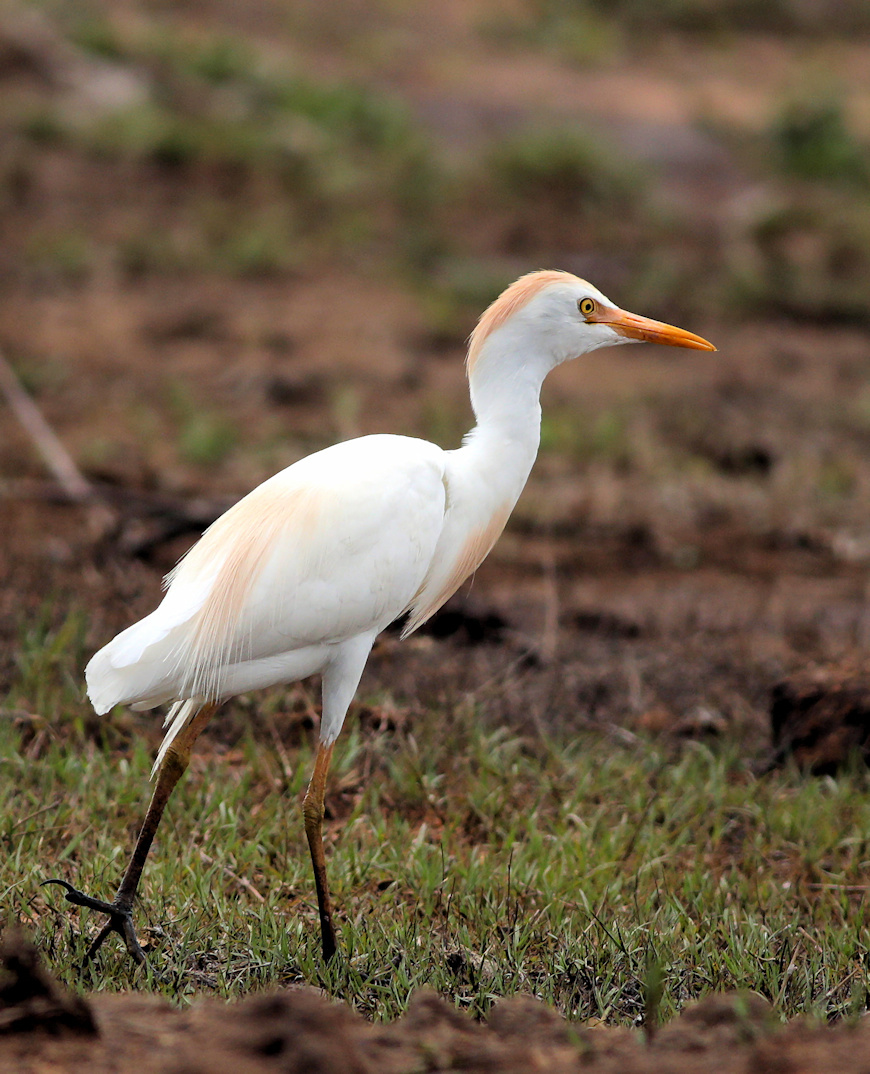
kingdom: Animalia
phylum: Chordata
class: Aves
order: Pelecaniformes
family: Ardeidae
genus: Bubulcus
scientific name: Bubulcus ibis
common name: Cattle egret
